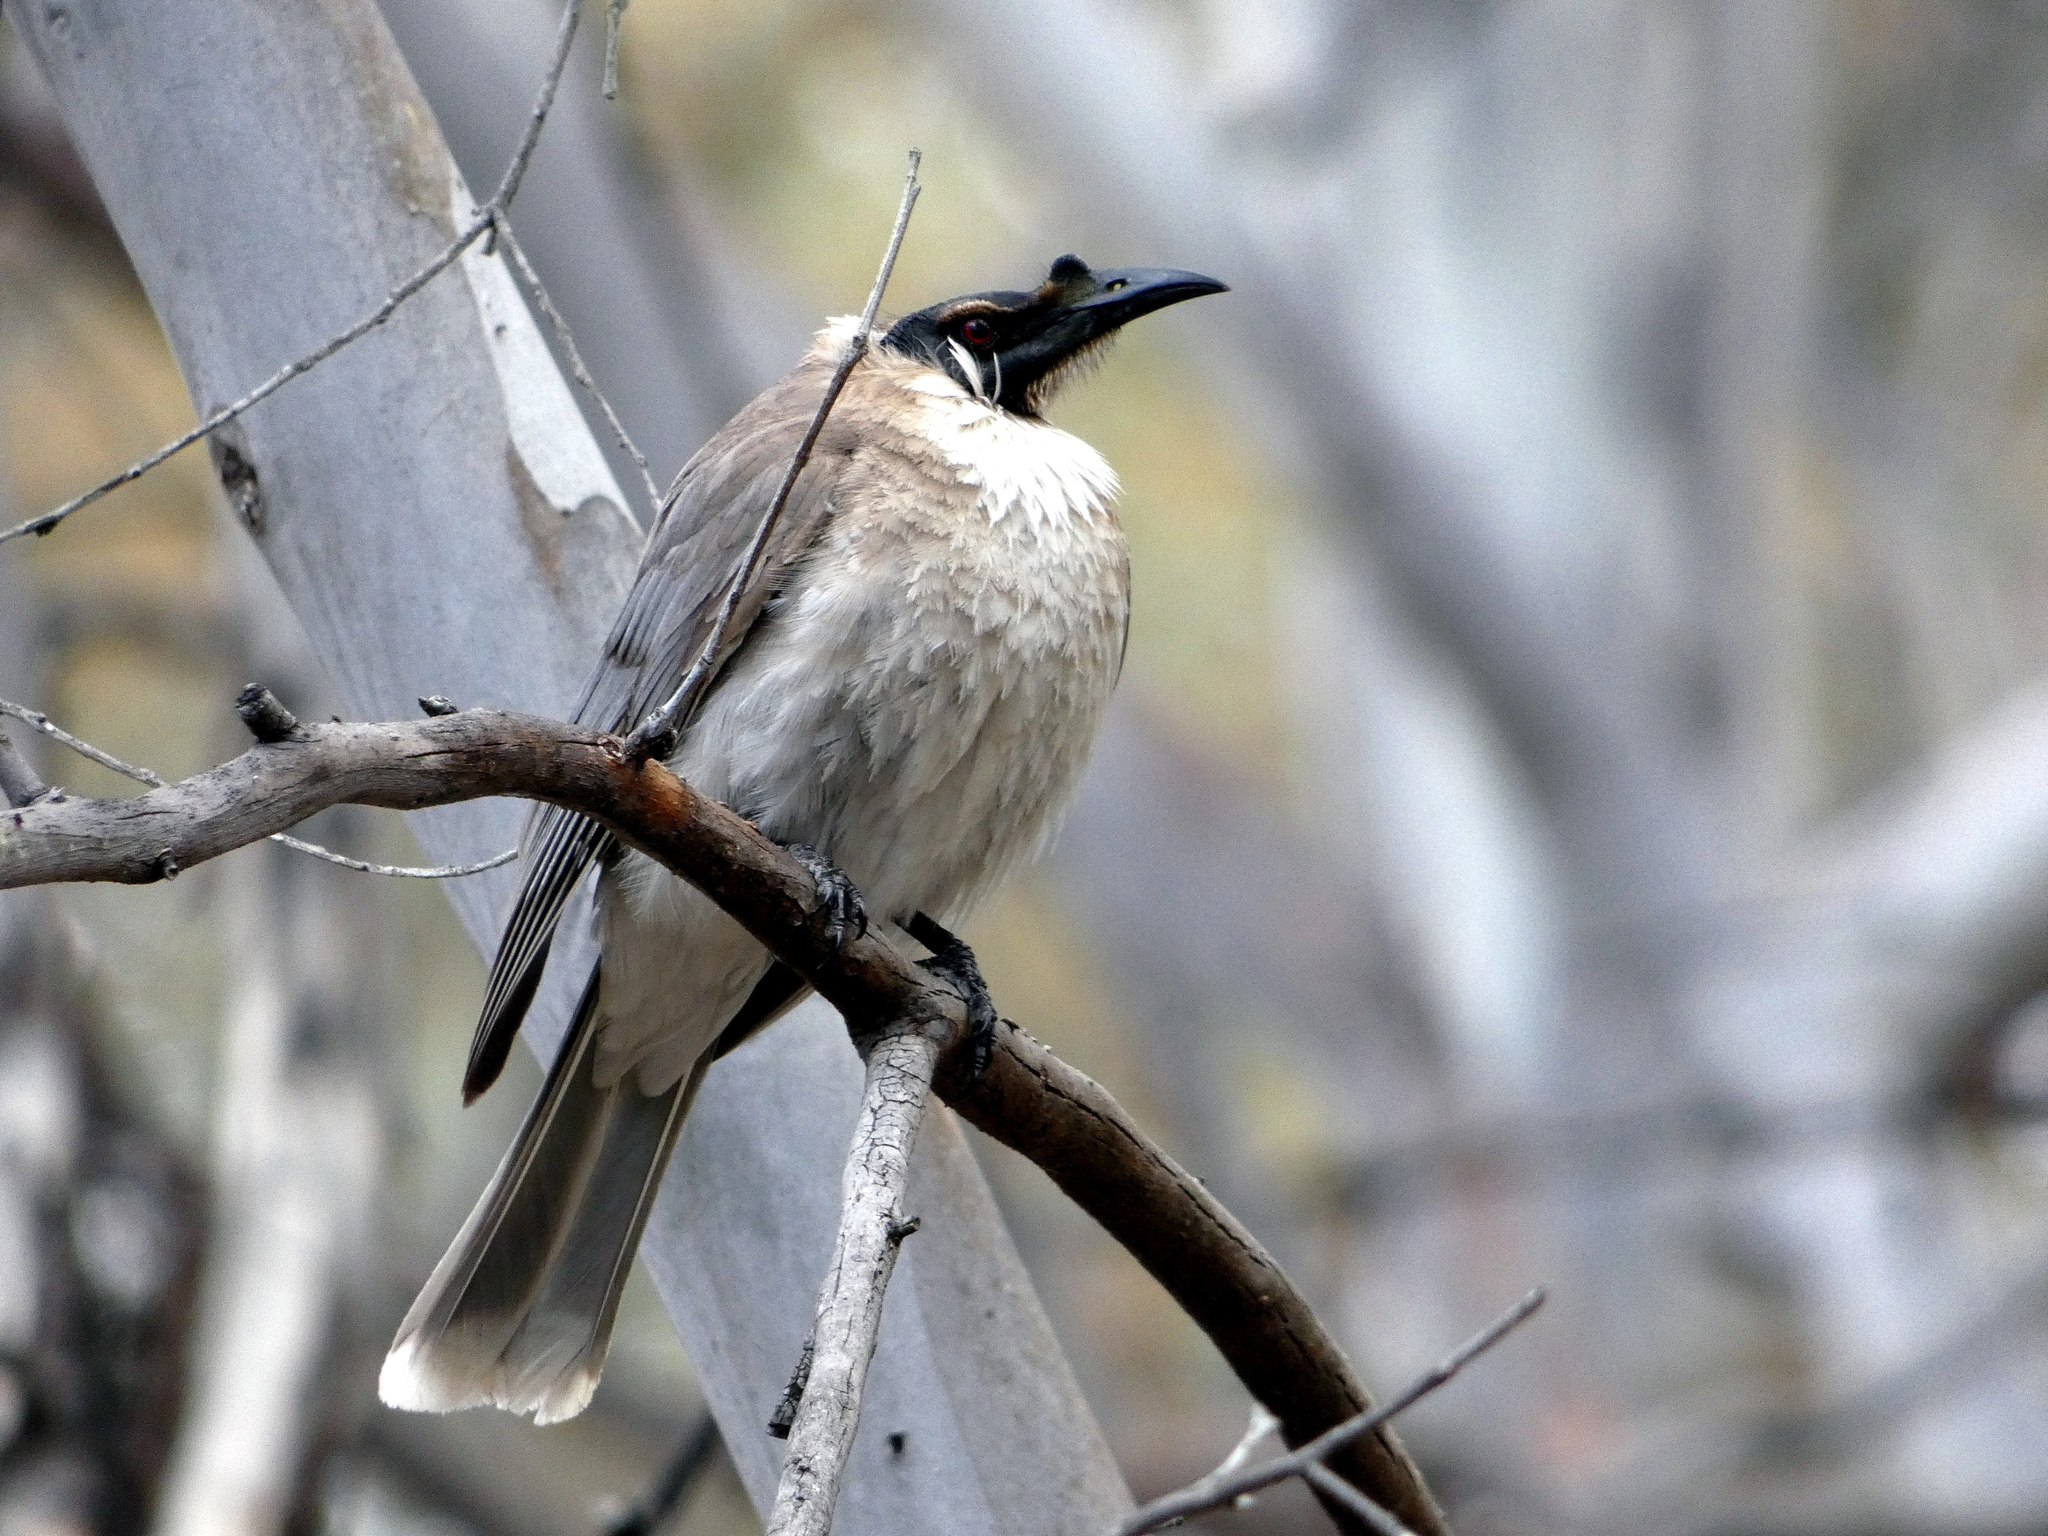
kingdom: Animalia
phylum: Chordata
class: Aves
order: Passeriformes
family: Meliphagidae
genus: Philemon
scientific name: Philemon corniculatus
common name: Noisy friarbird
